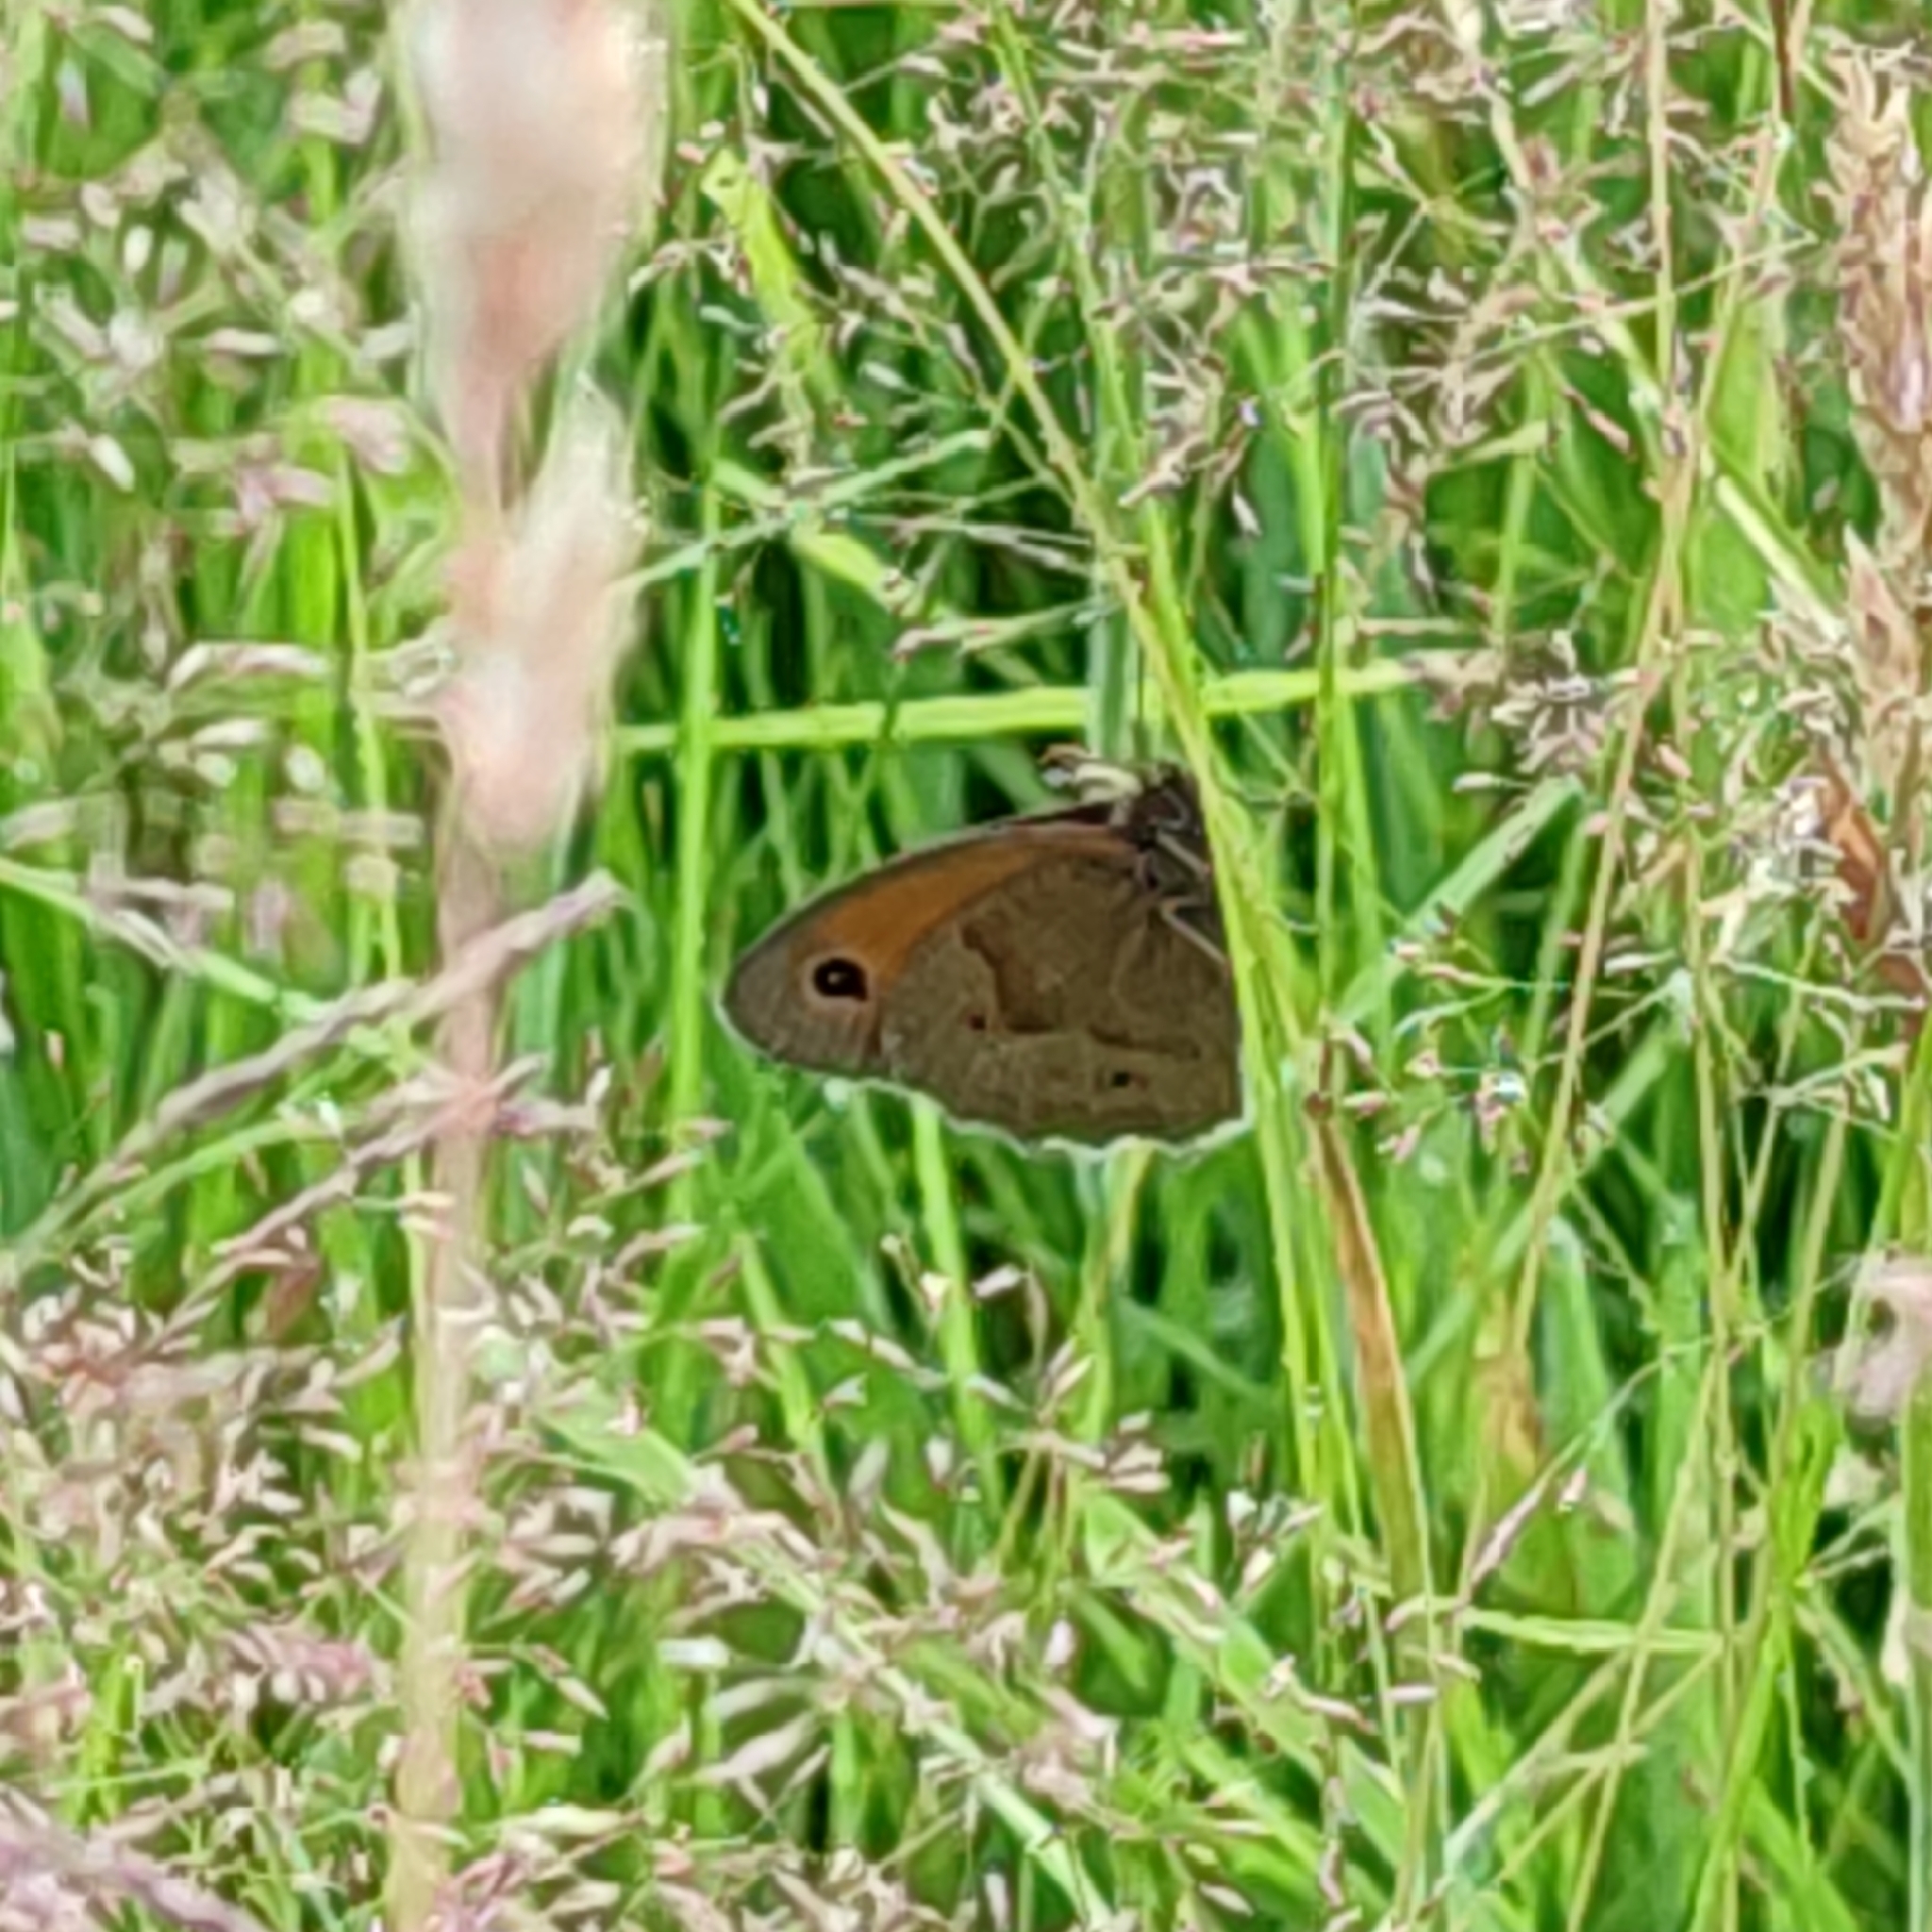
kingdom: Animalia
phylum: Arthropoda
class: Insecta
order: Lepidoptera
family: Nymphalidae
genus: Maniola
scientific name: Maniola jurtina
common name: Meadow brown
